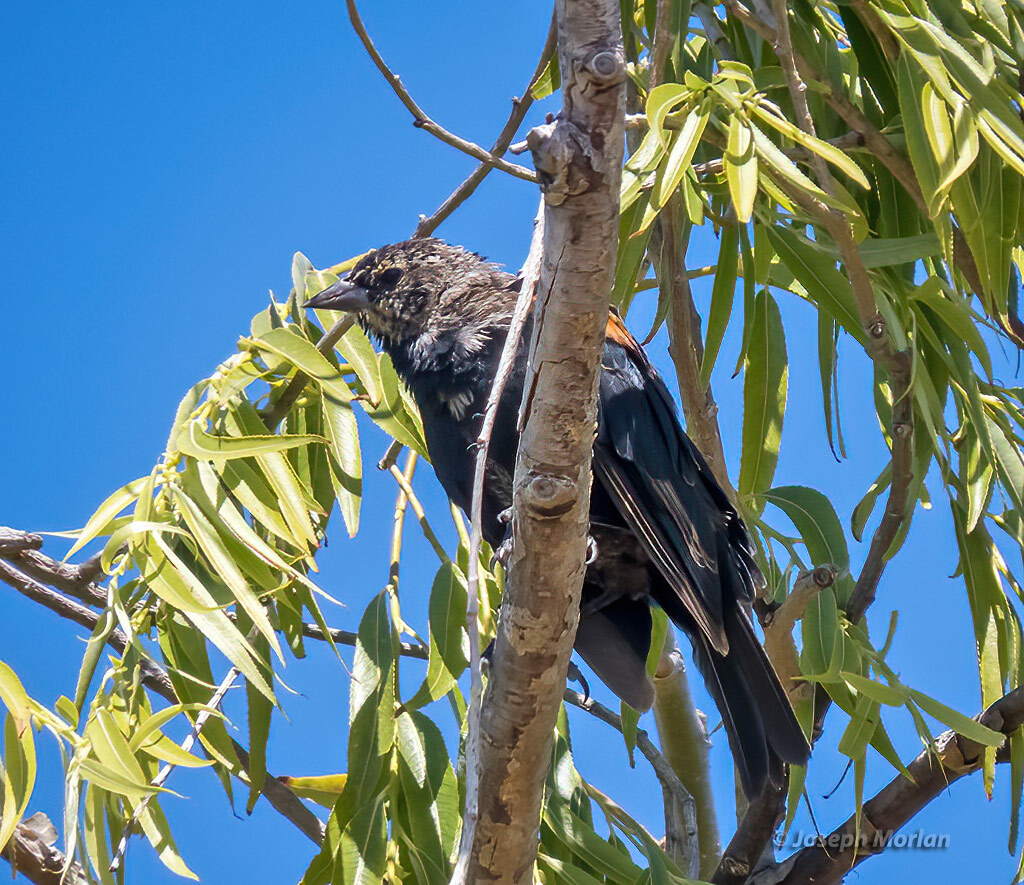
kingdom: Animalia
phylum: Chordata
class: Aves
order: Passeriformes
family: Icteridae
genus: Agelaius
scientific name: Agelaius phoeniceus
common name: Red-winged blackbird
